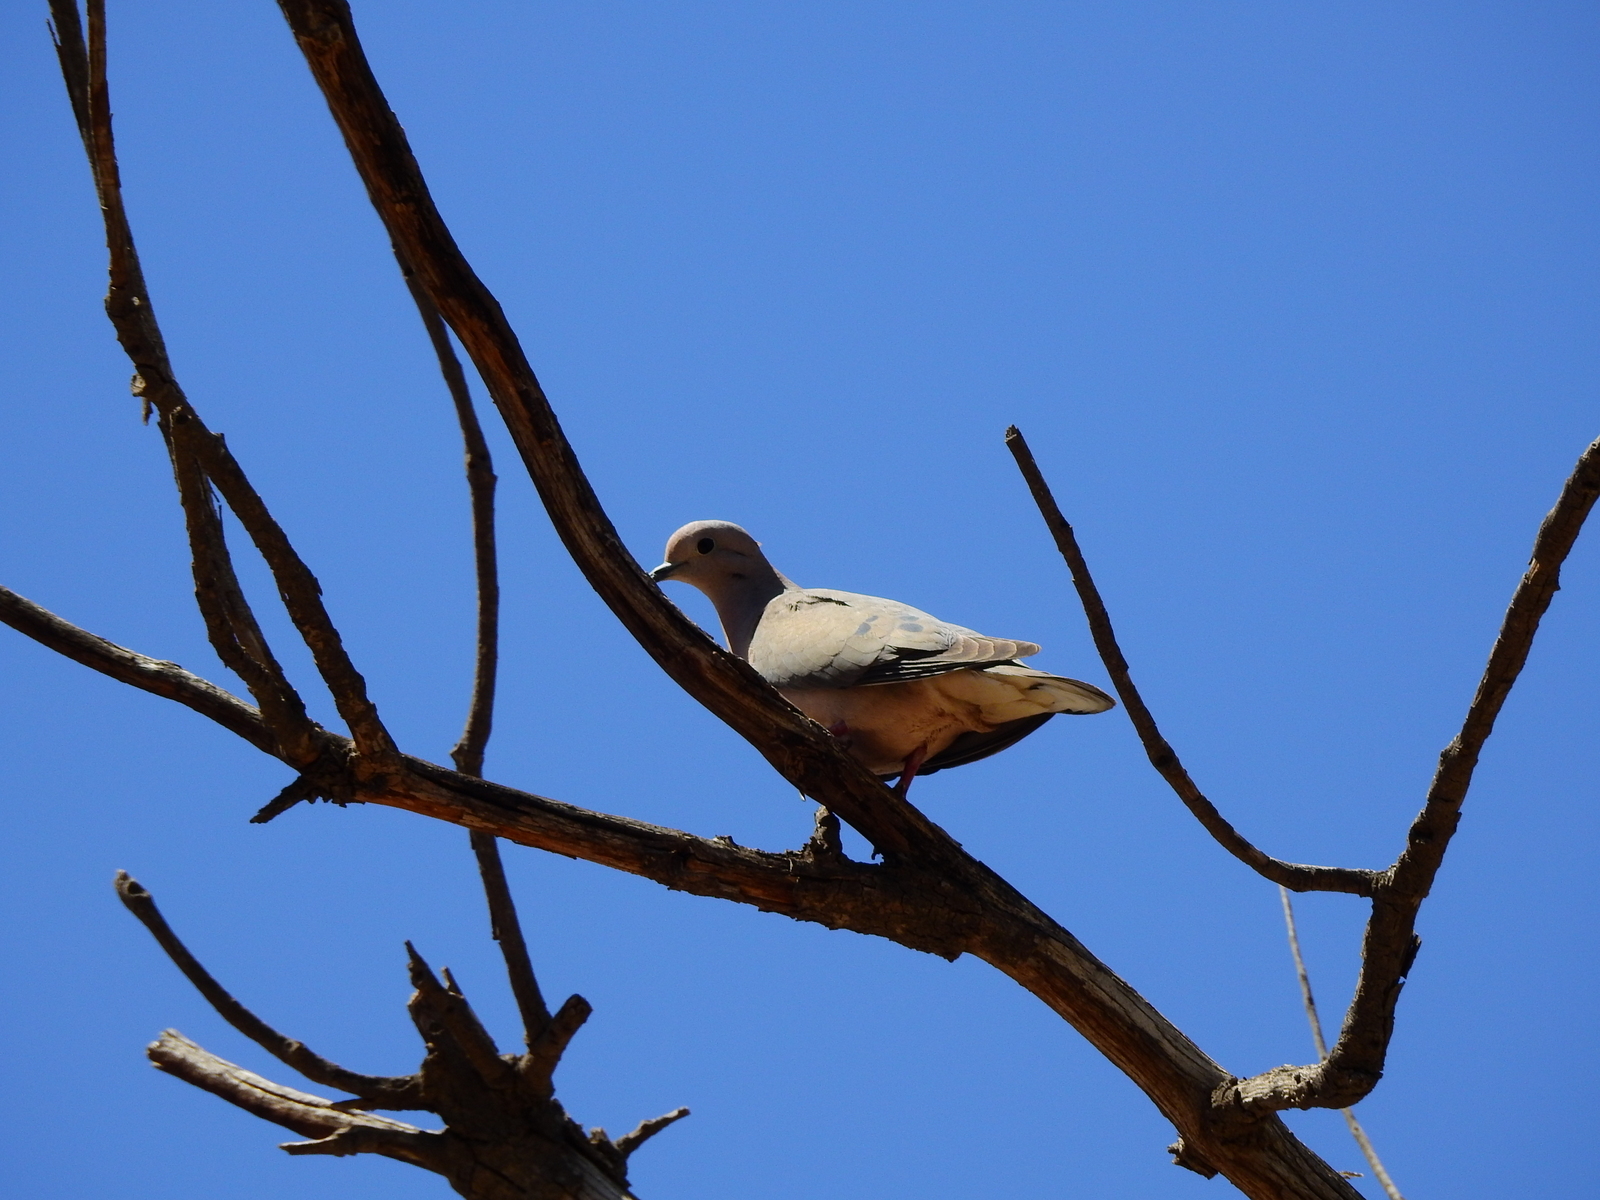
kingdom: Animalia
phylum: Chordata
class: Aves
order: Columbiformes
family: Columbidae
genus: Zenaida
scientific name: Zenaida auriculata
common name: Eared dove
